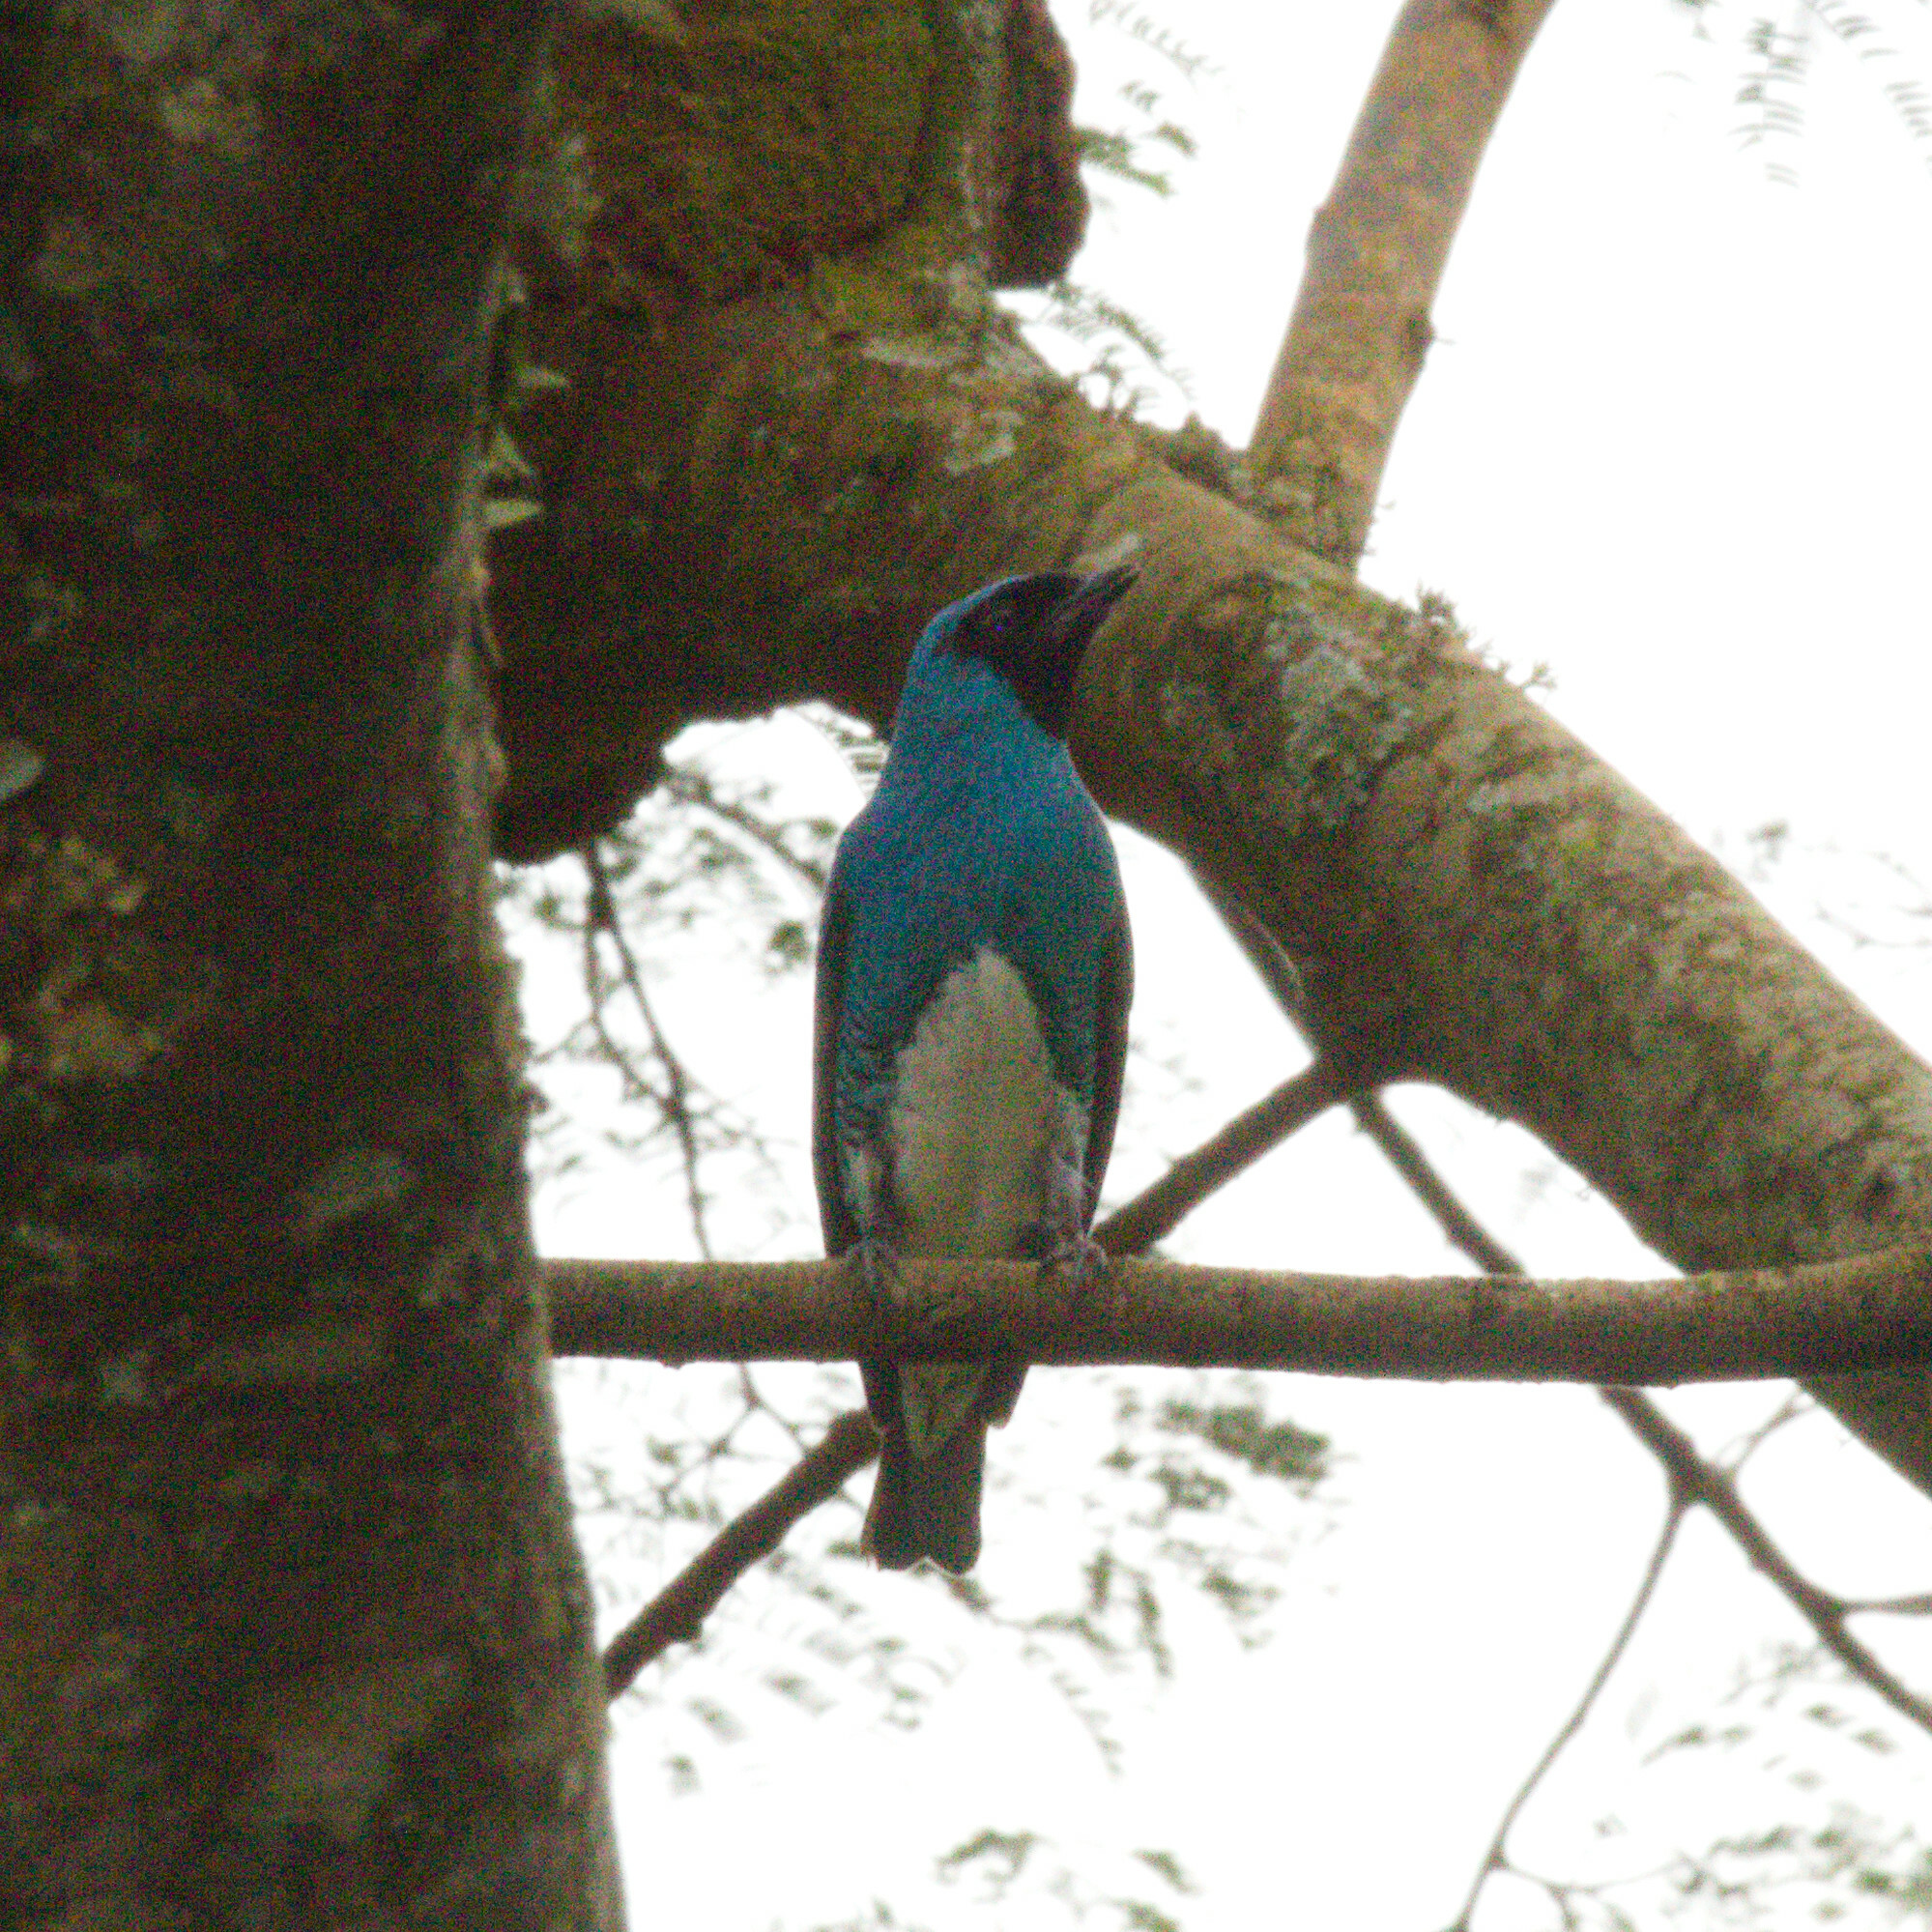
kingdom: Animalia
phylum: Chordata
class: Aves
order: Passeriformes
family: Thraupidae
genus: Tersina
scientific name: Tersina viridis
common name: Swallow tanager
